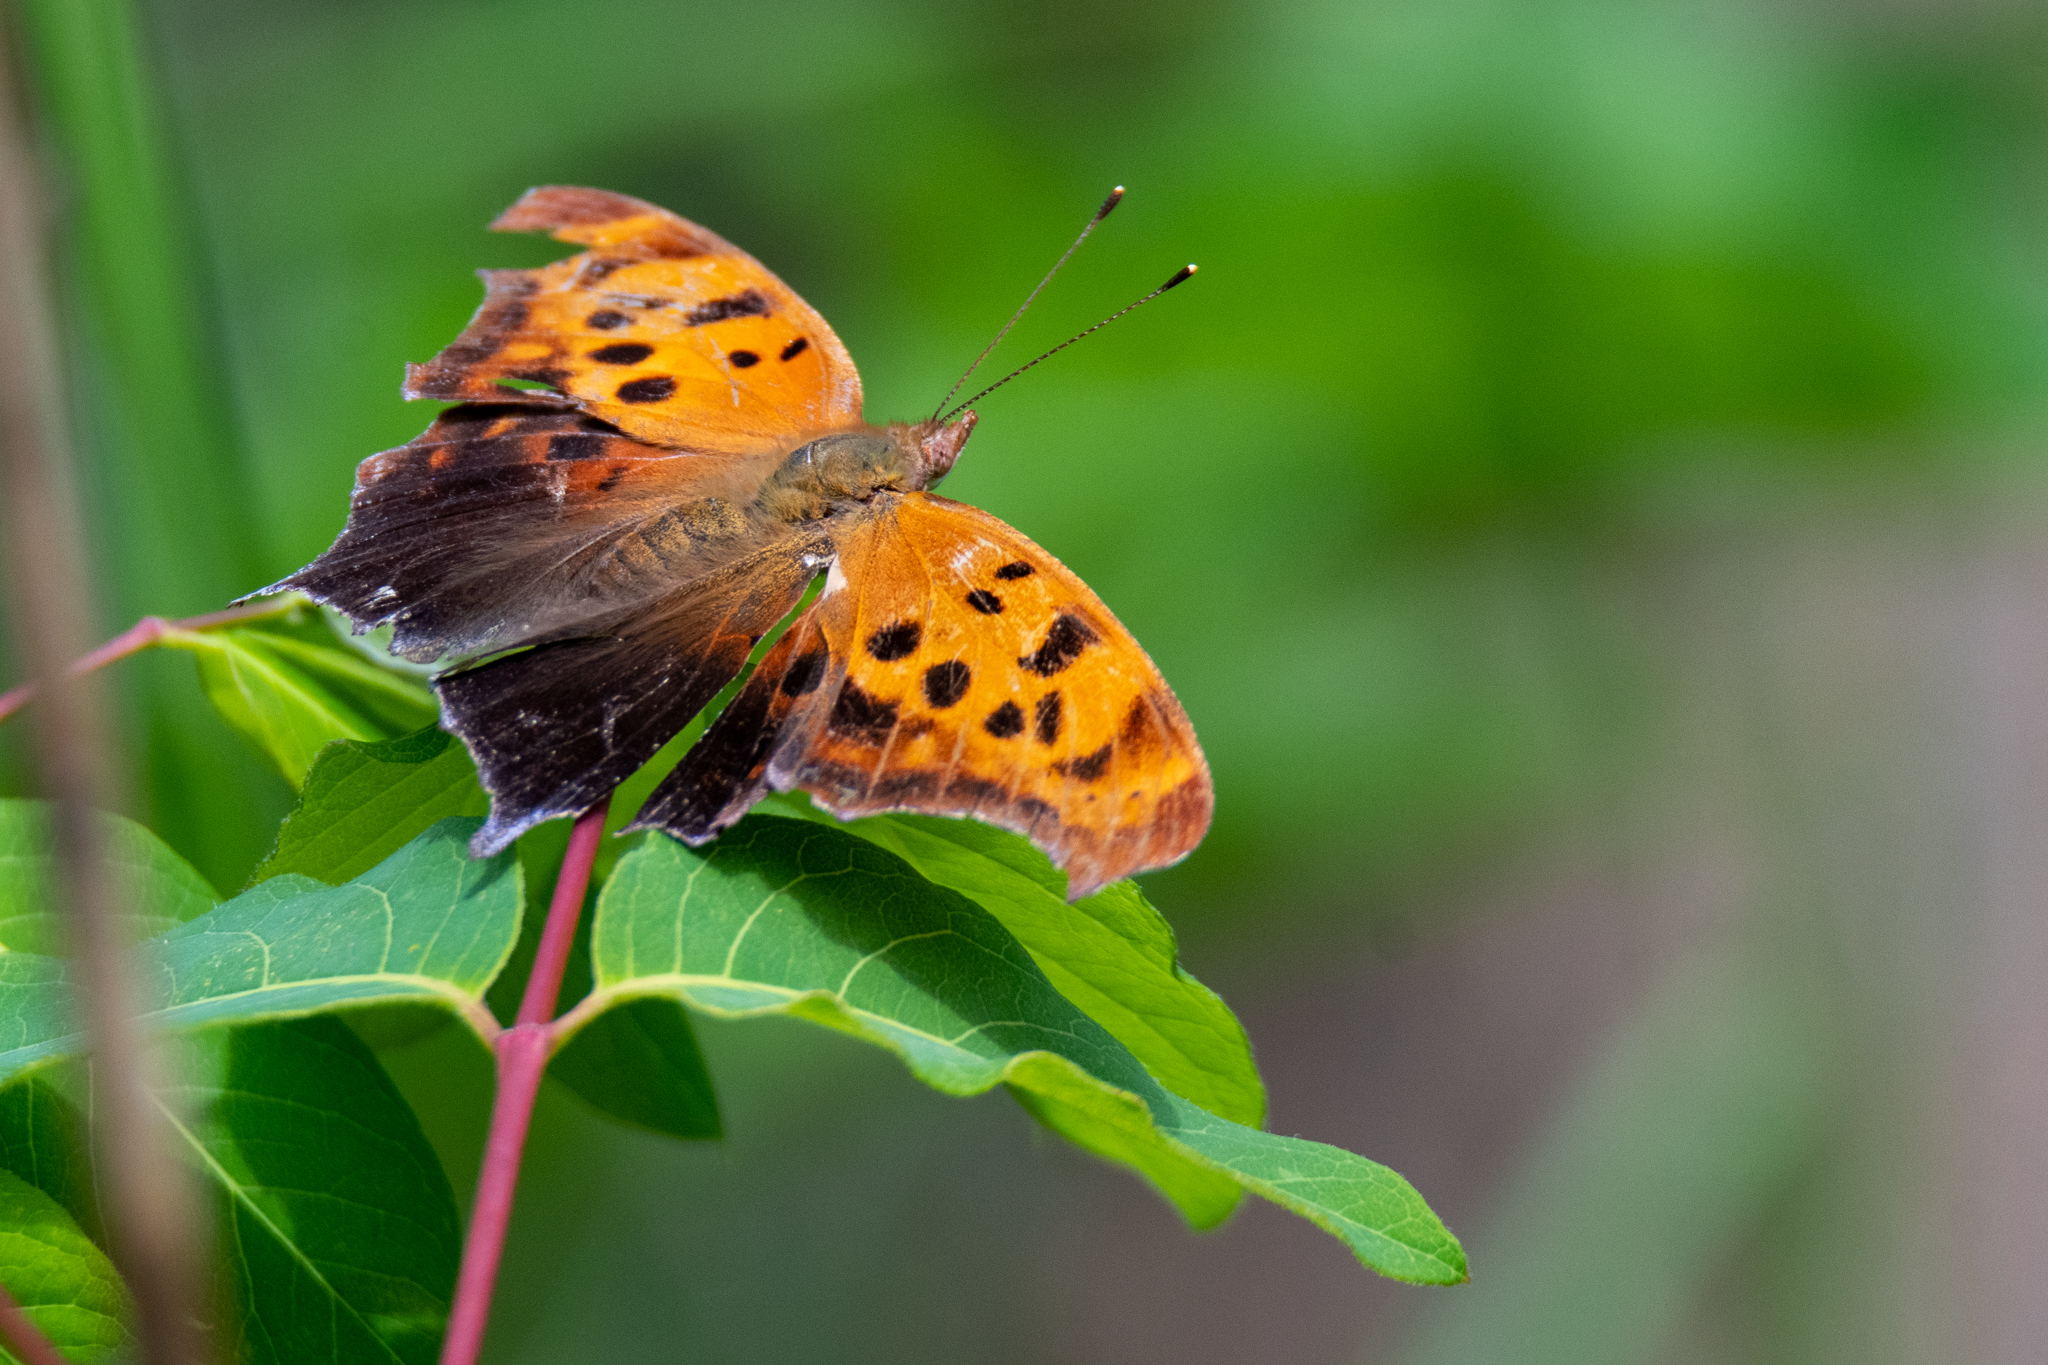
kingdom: Animalia
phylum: Arthropoda
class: Insecta
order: Lepidoptera
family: Nymphalidae
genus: Polygonia
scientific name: Polygonia interrogationis
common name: Question mark
